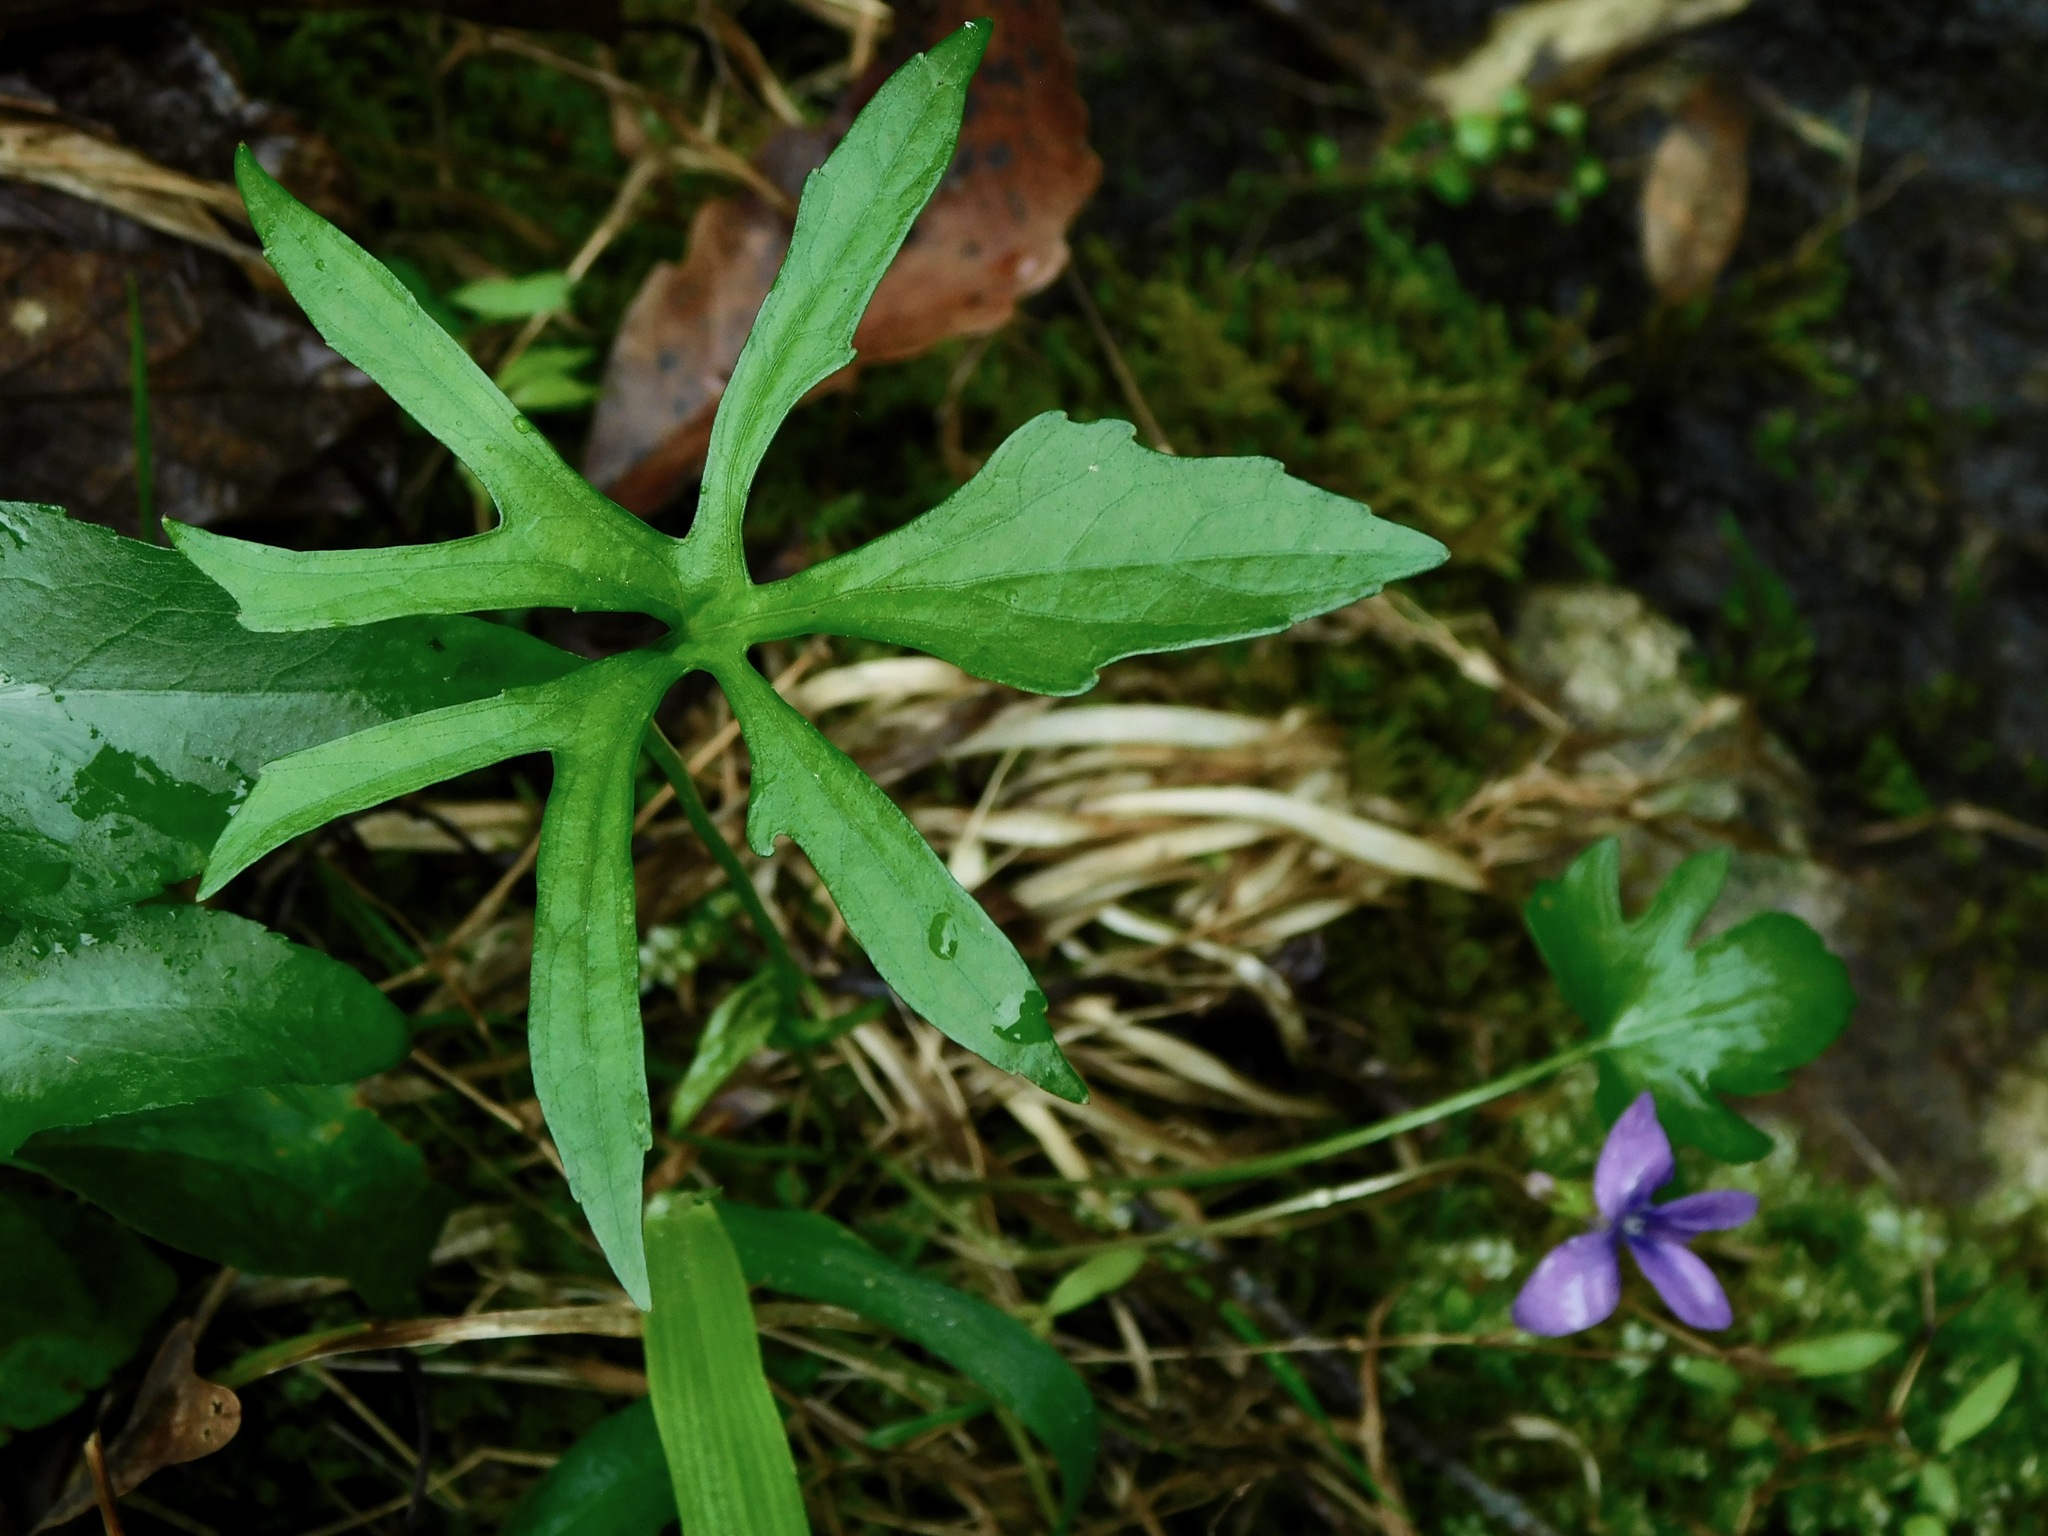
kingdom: Plantae
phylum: Tracheophyta
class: Magnoliopsida
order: Malpighiales
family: Violaceae
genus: Viola
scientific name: Viola palmata
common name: Early blue violet
